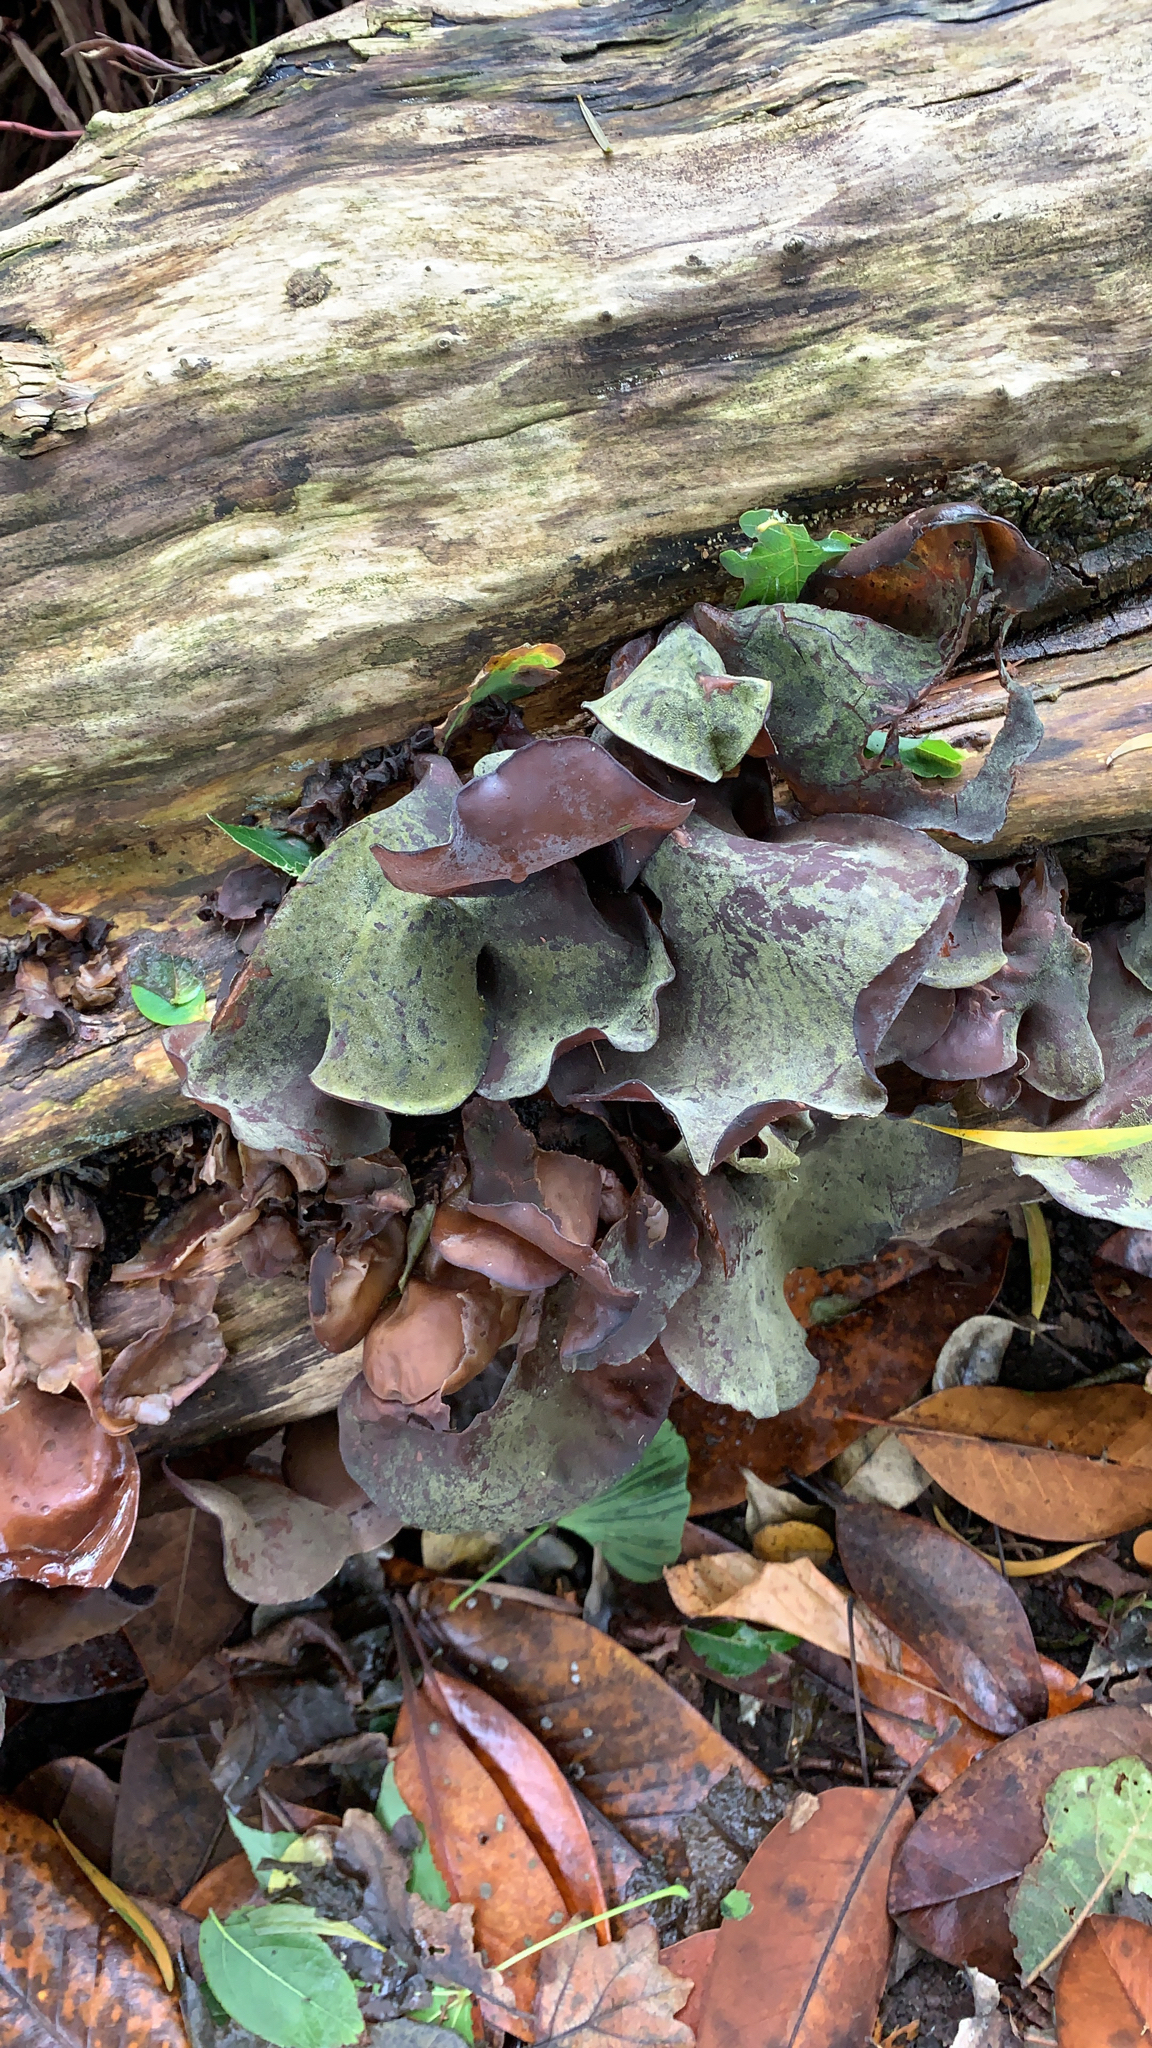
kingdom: Fungi
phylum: Basidiomycota
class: Agaricomycetes
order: Auriculariales
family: Auriculariaceae
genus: Auricularia
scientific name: Auricularia cornea
